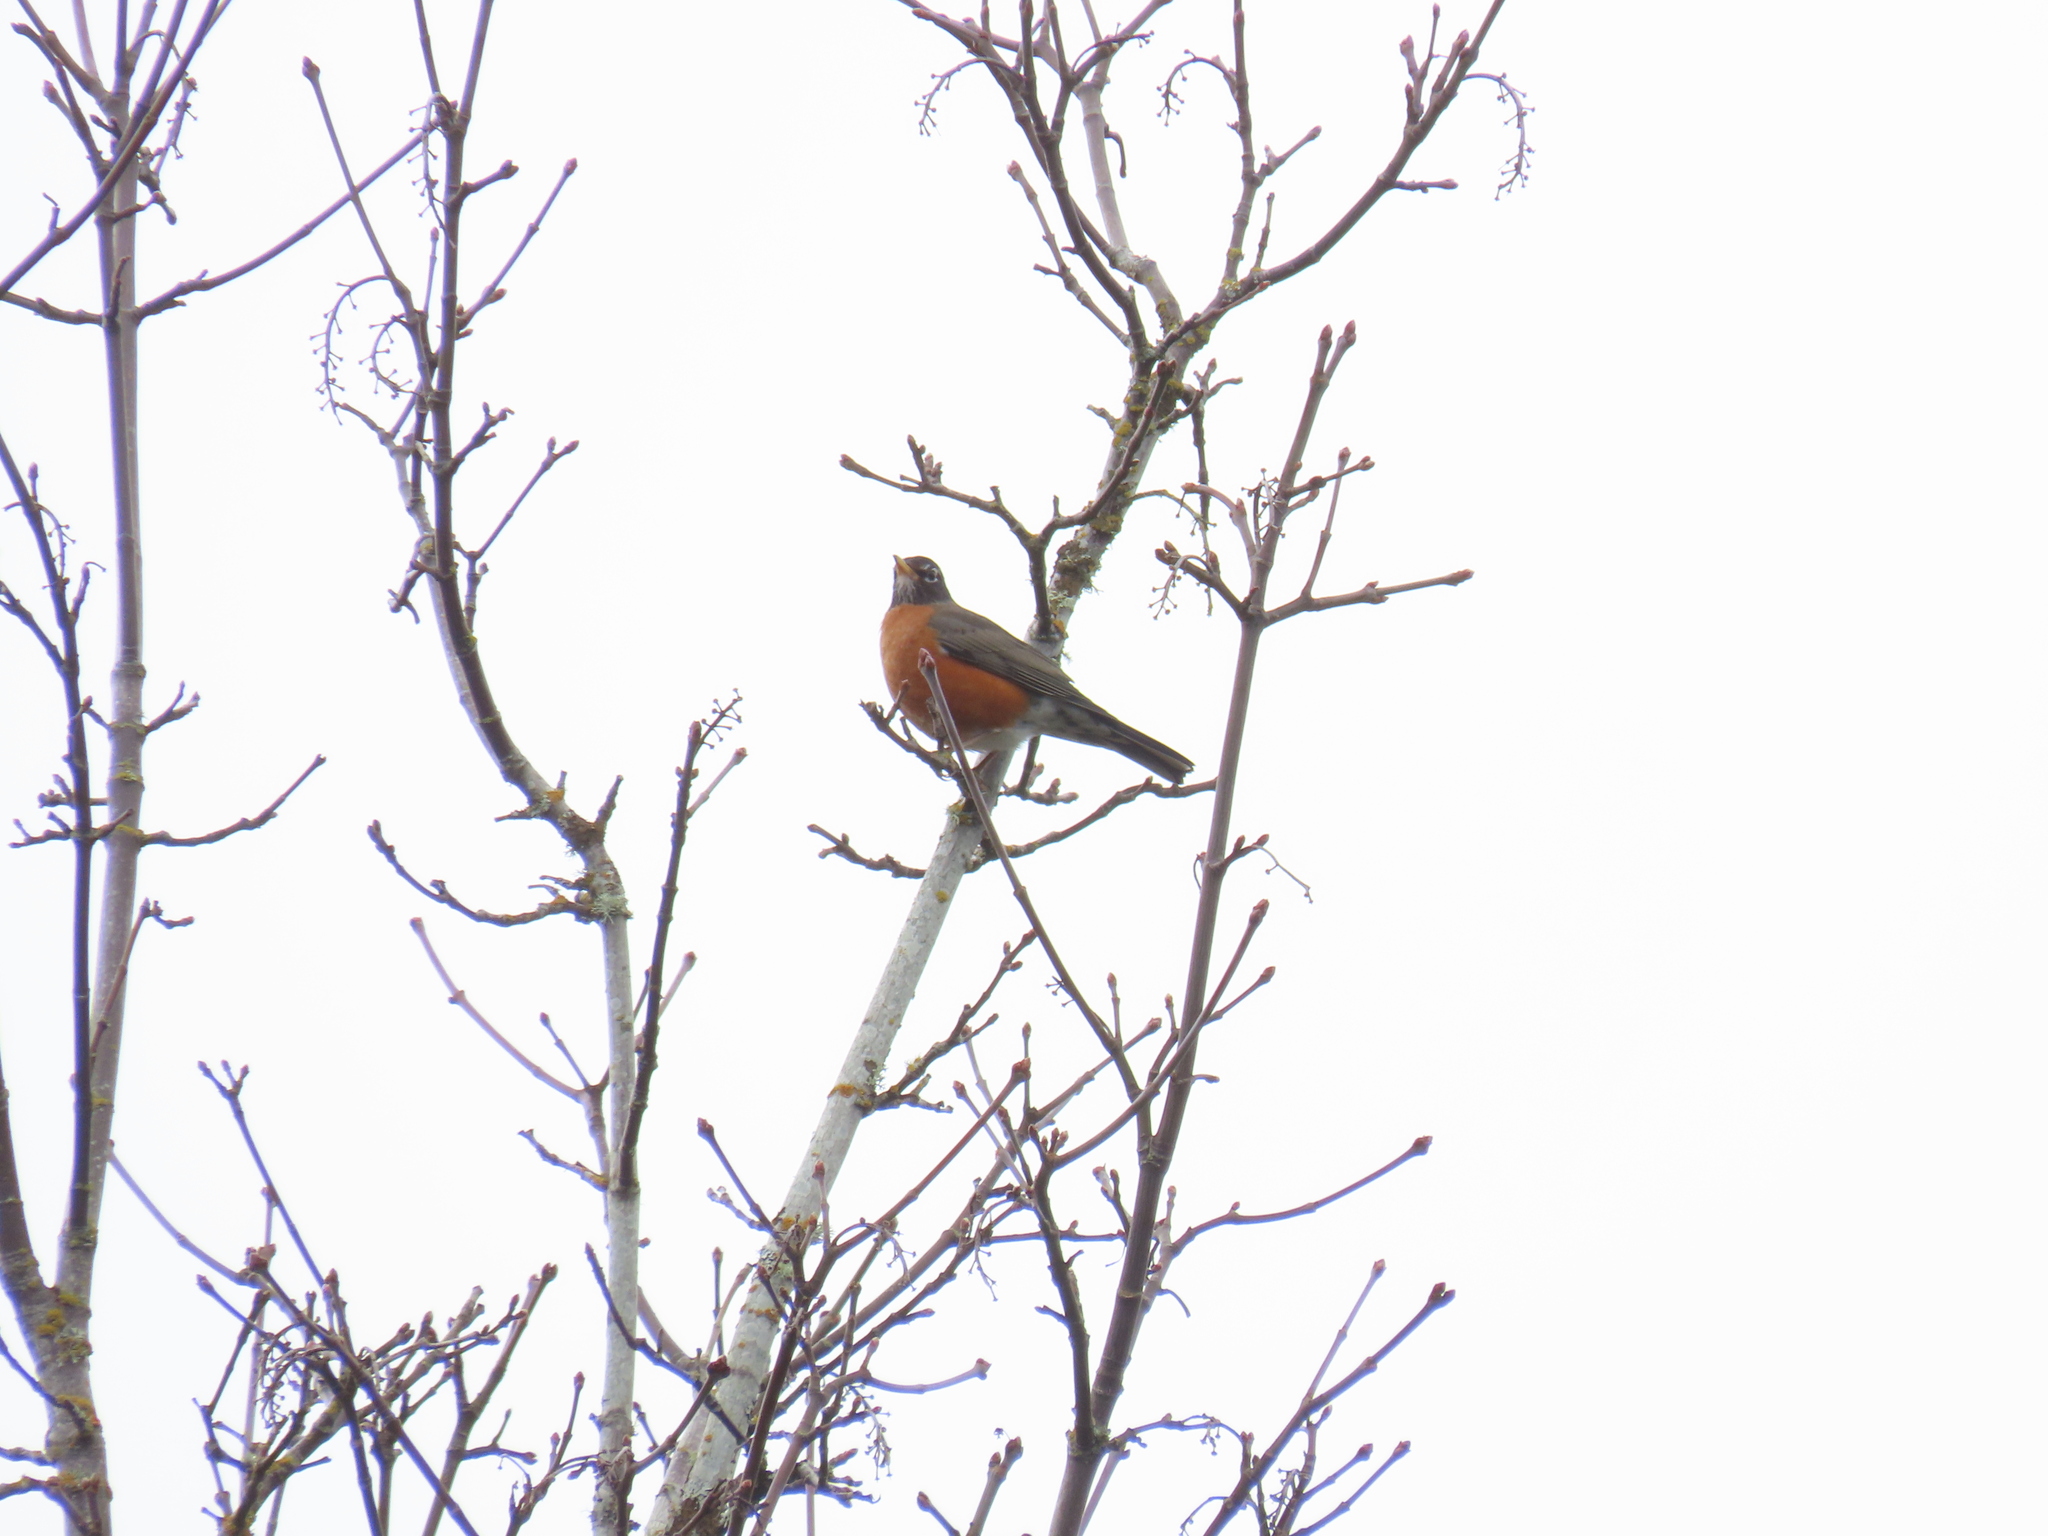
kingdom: Animalia
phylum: Chordata
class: Aves
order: Passeriformes
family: Turdidae
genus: Turdus
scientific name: Turdus migratorius
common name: American robin
